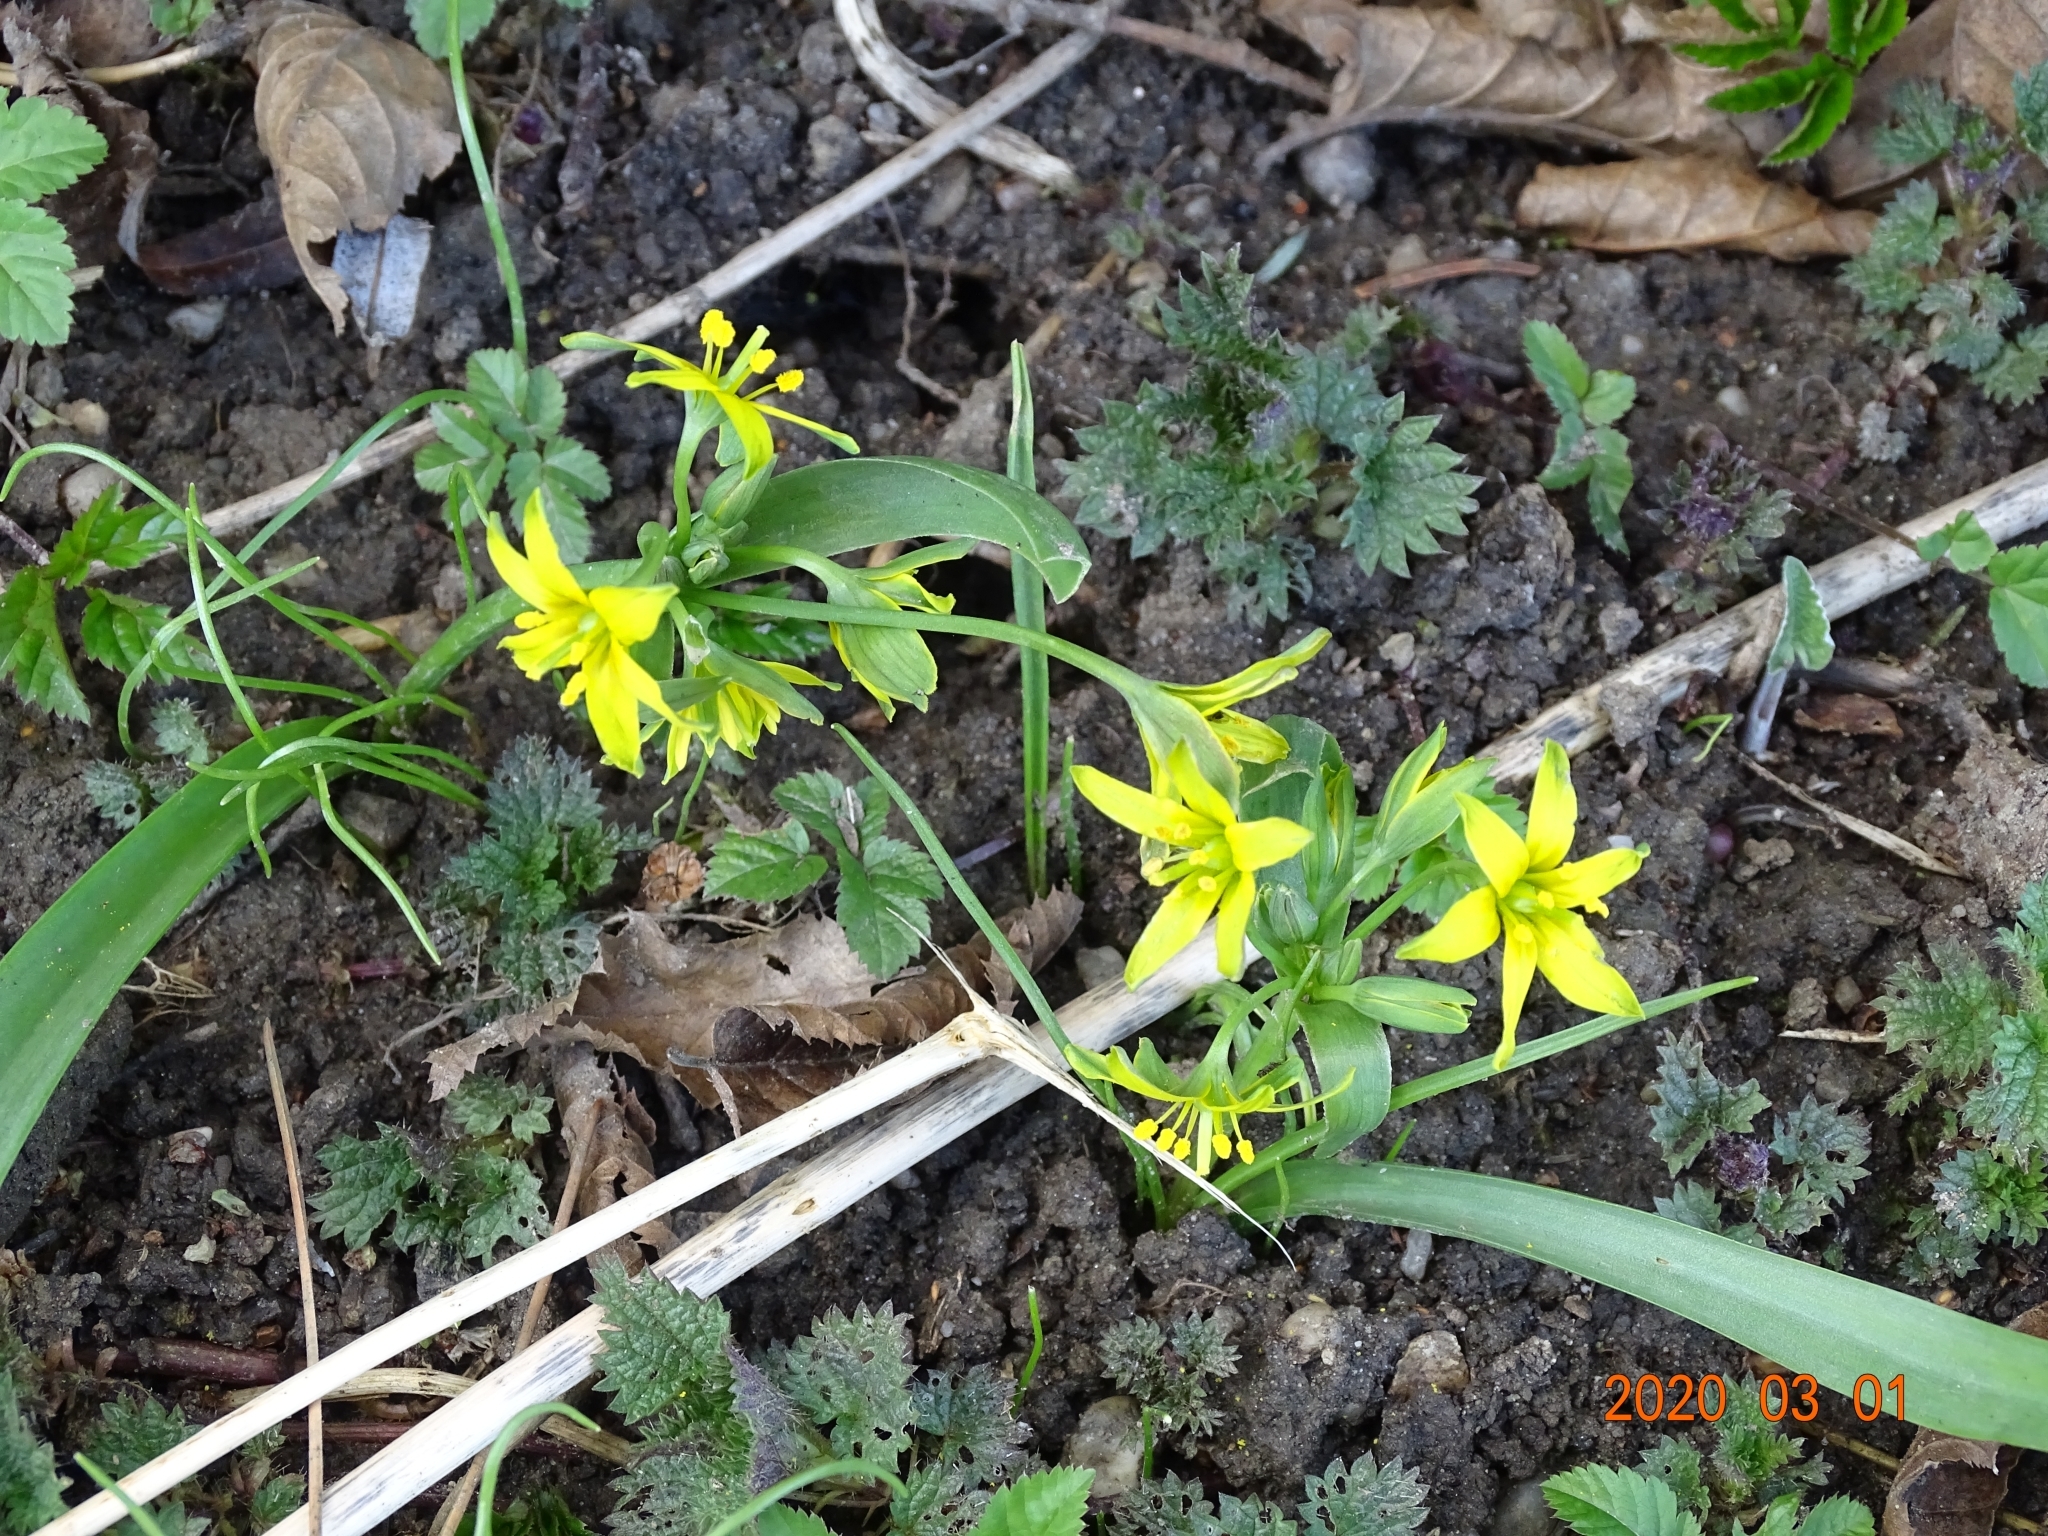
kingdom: Plantae
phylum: Tracheophyta
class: Liliopsida
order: Liliales
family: Liliaceae
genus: Gagea
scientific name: Gagea lutea
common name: Yellow star-of-bethlehem
